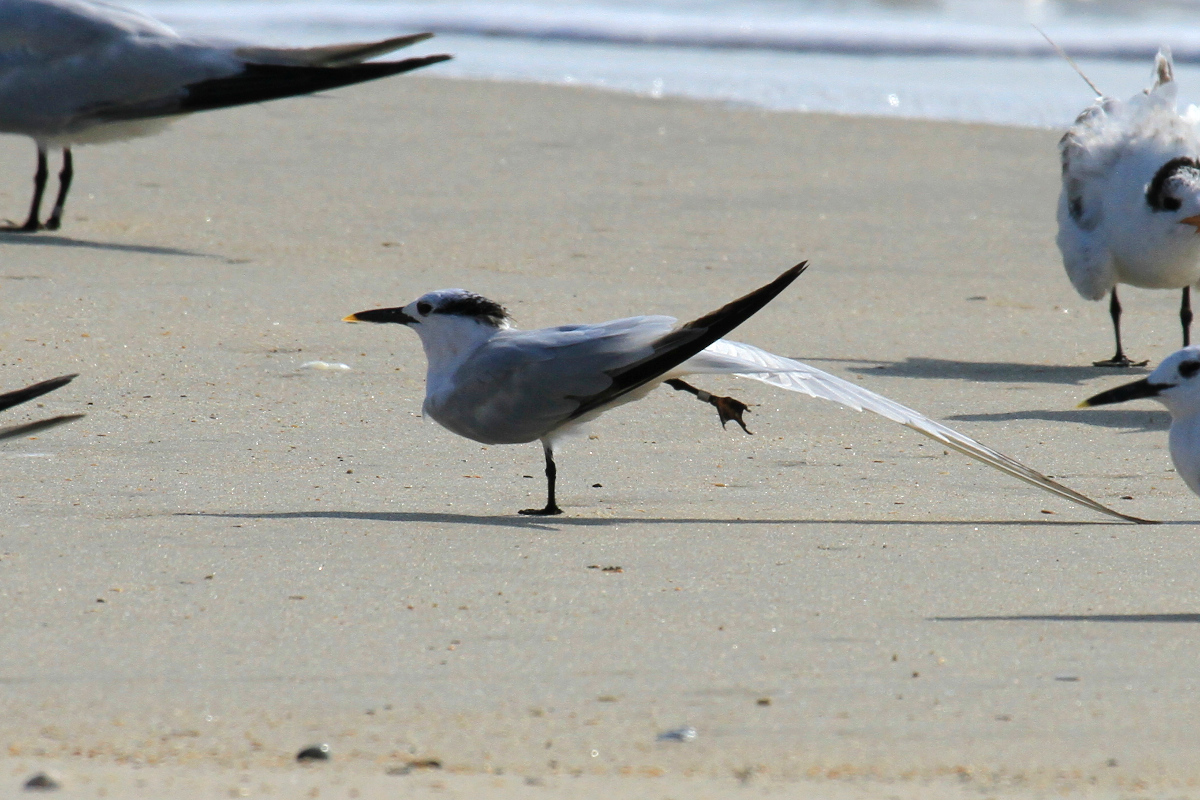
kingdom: Animalia
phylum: Chordata
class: Aves
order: Charadriiformes
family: Laridae
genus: Thalasseus
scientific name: Thalasseus sandvicensis
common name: Sandwich tern
